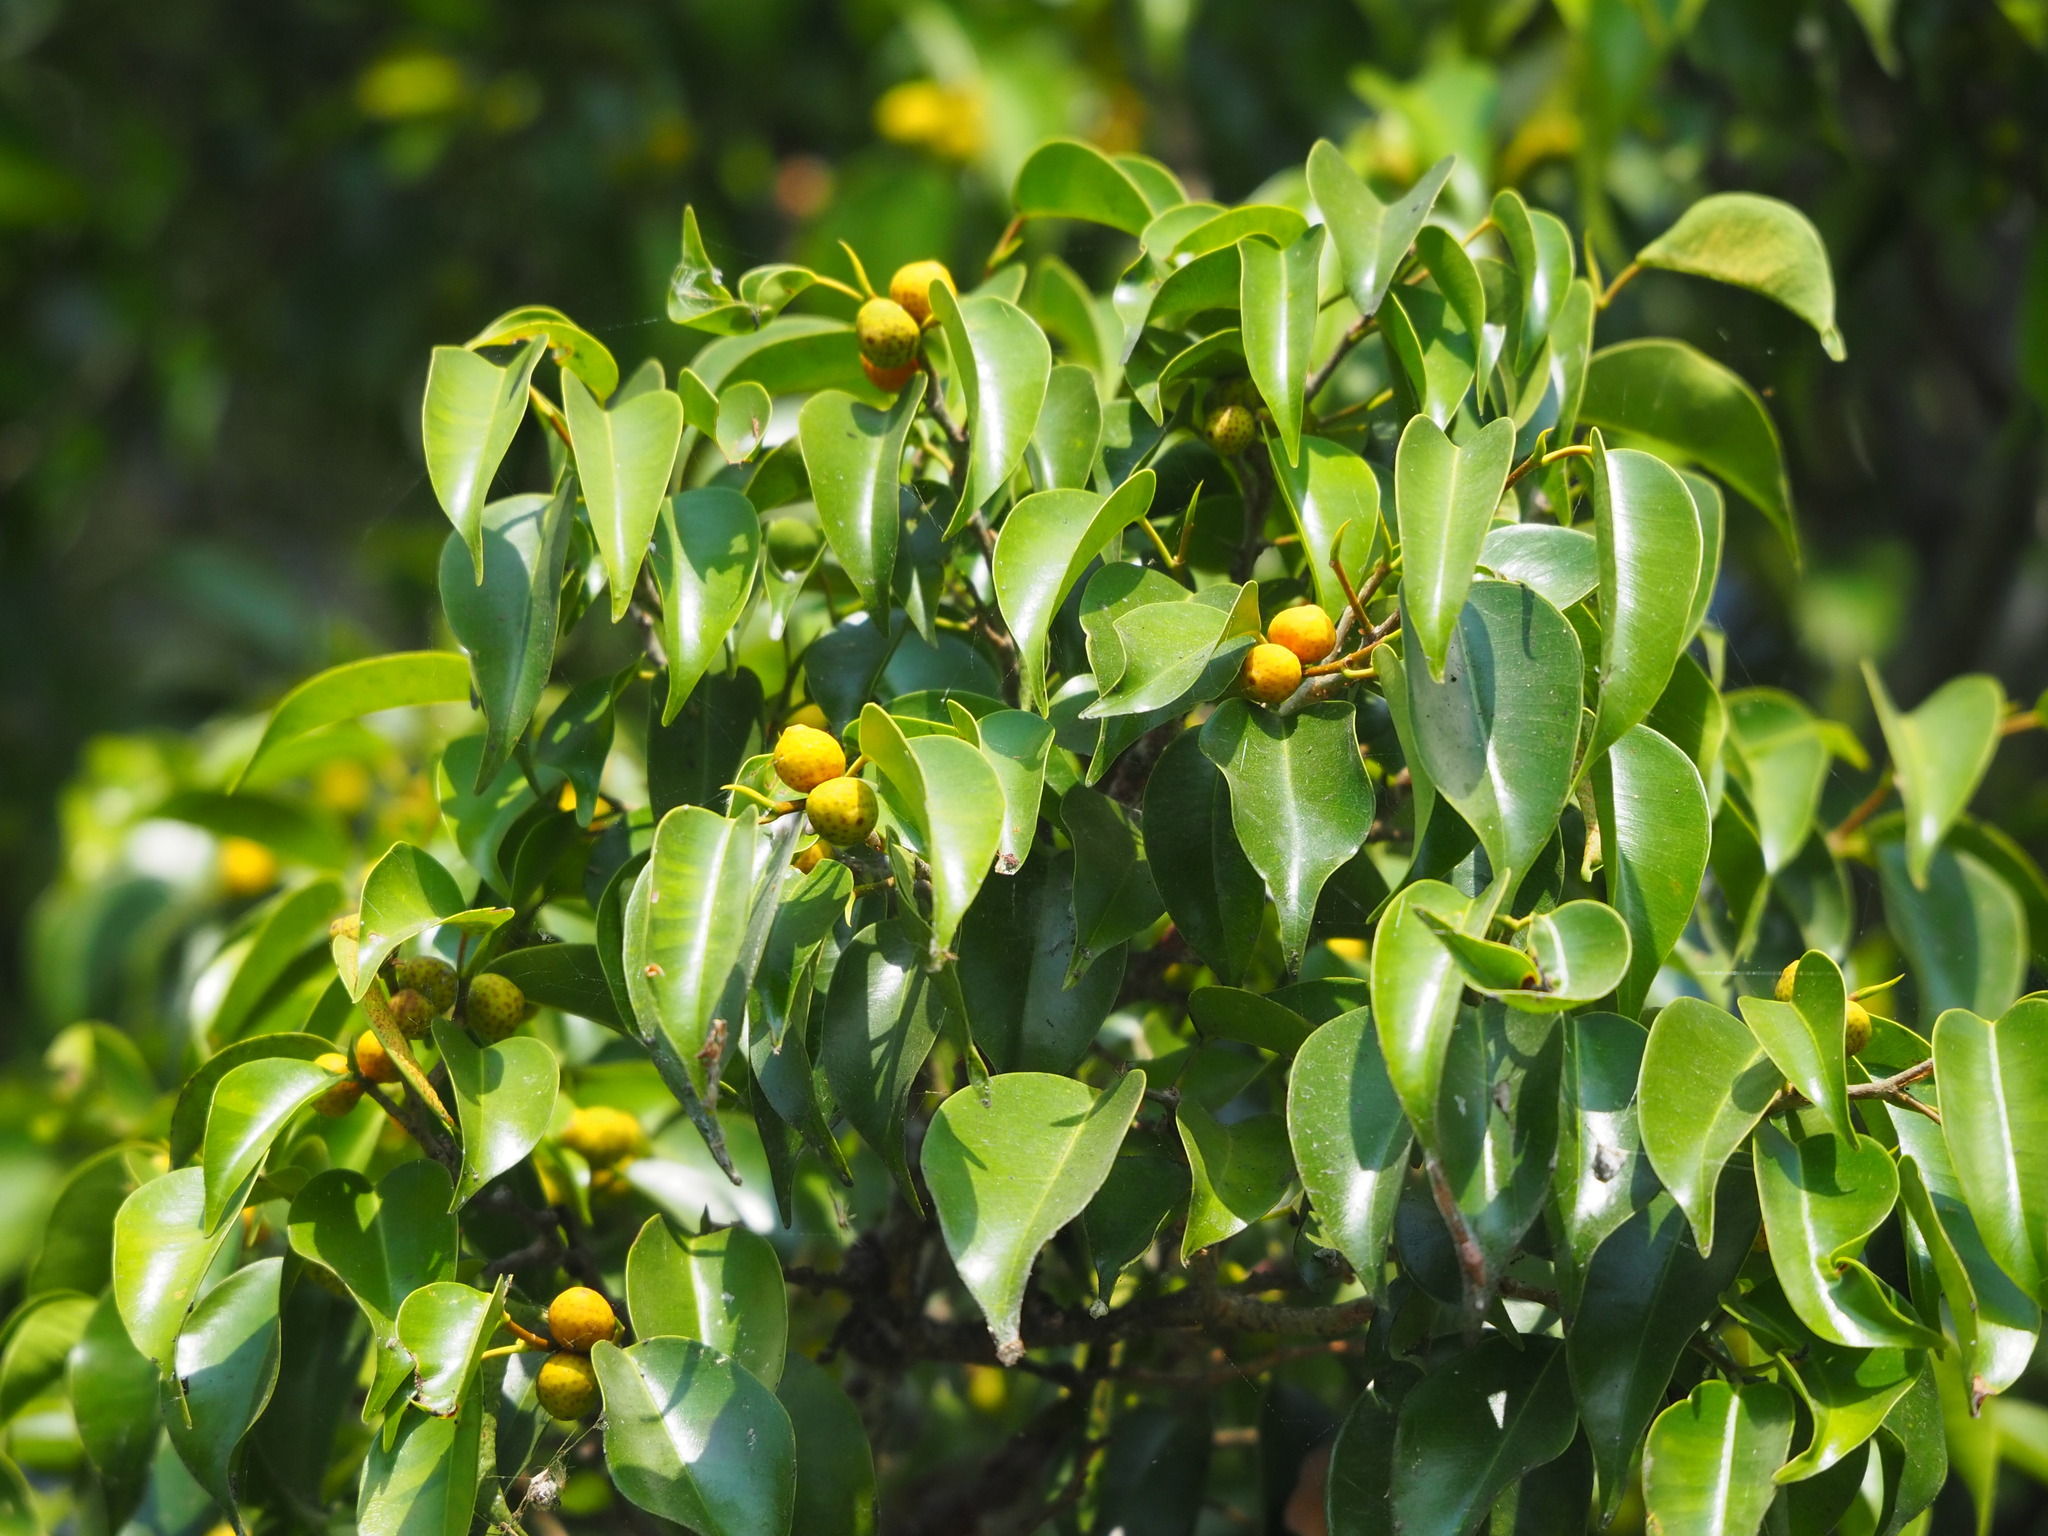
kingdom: Plantae
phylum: Tracheophyta
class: Magnoliopsida
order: Rosales
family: Moraceae
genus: Ficus
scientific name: Ficus benjamina
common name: Weeping fig
